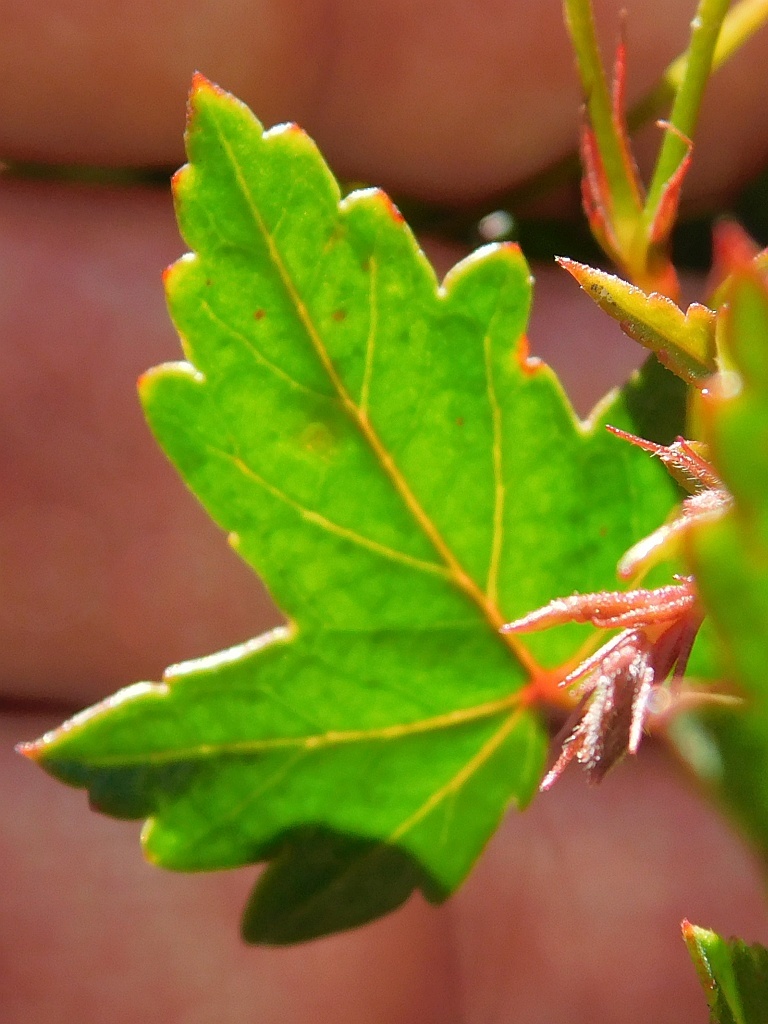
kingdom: Plantae
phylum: Tracheophyta
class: Magnoliopsida
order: Geraniales
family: Geraniaceae
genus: Pelargonium
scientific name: Pelargonium setulosum
